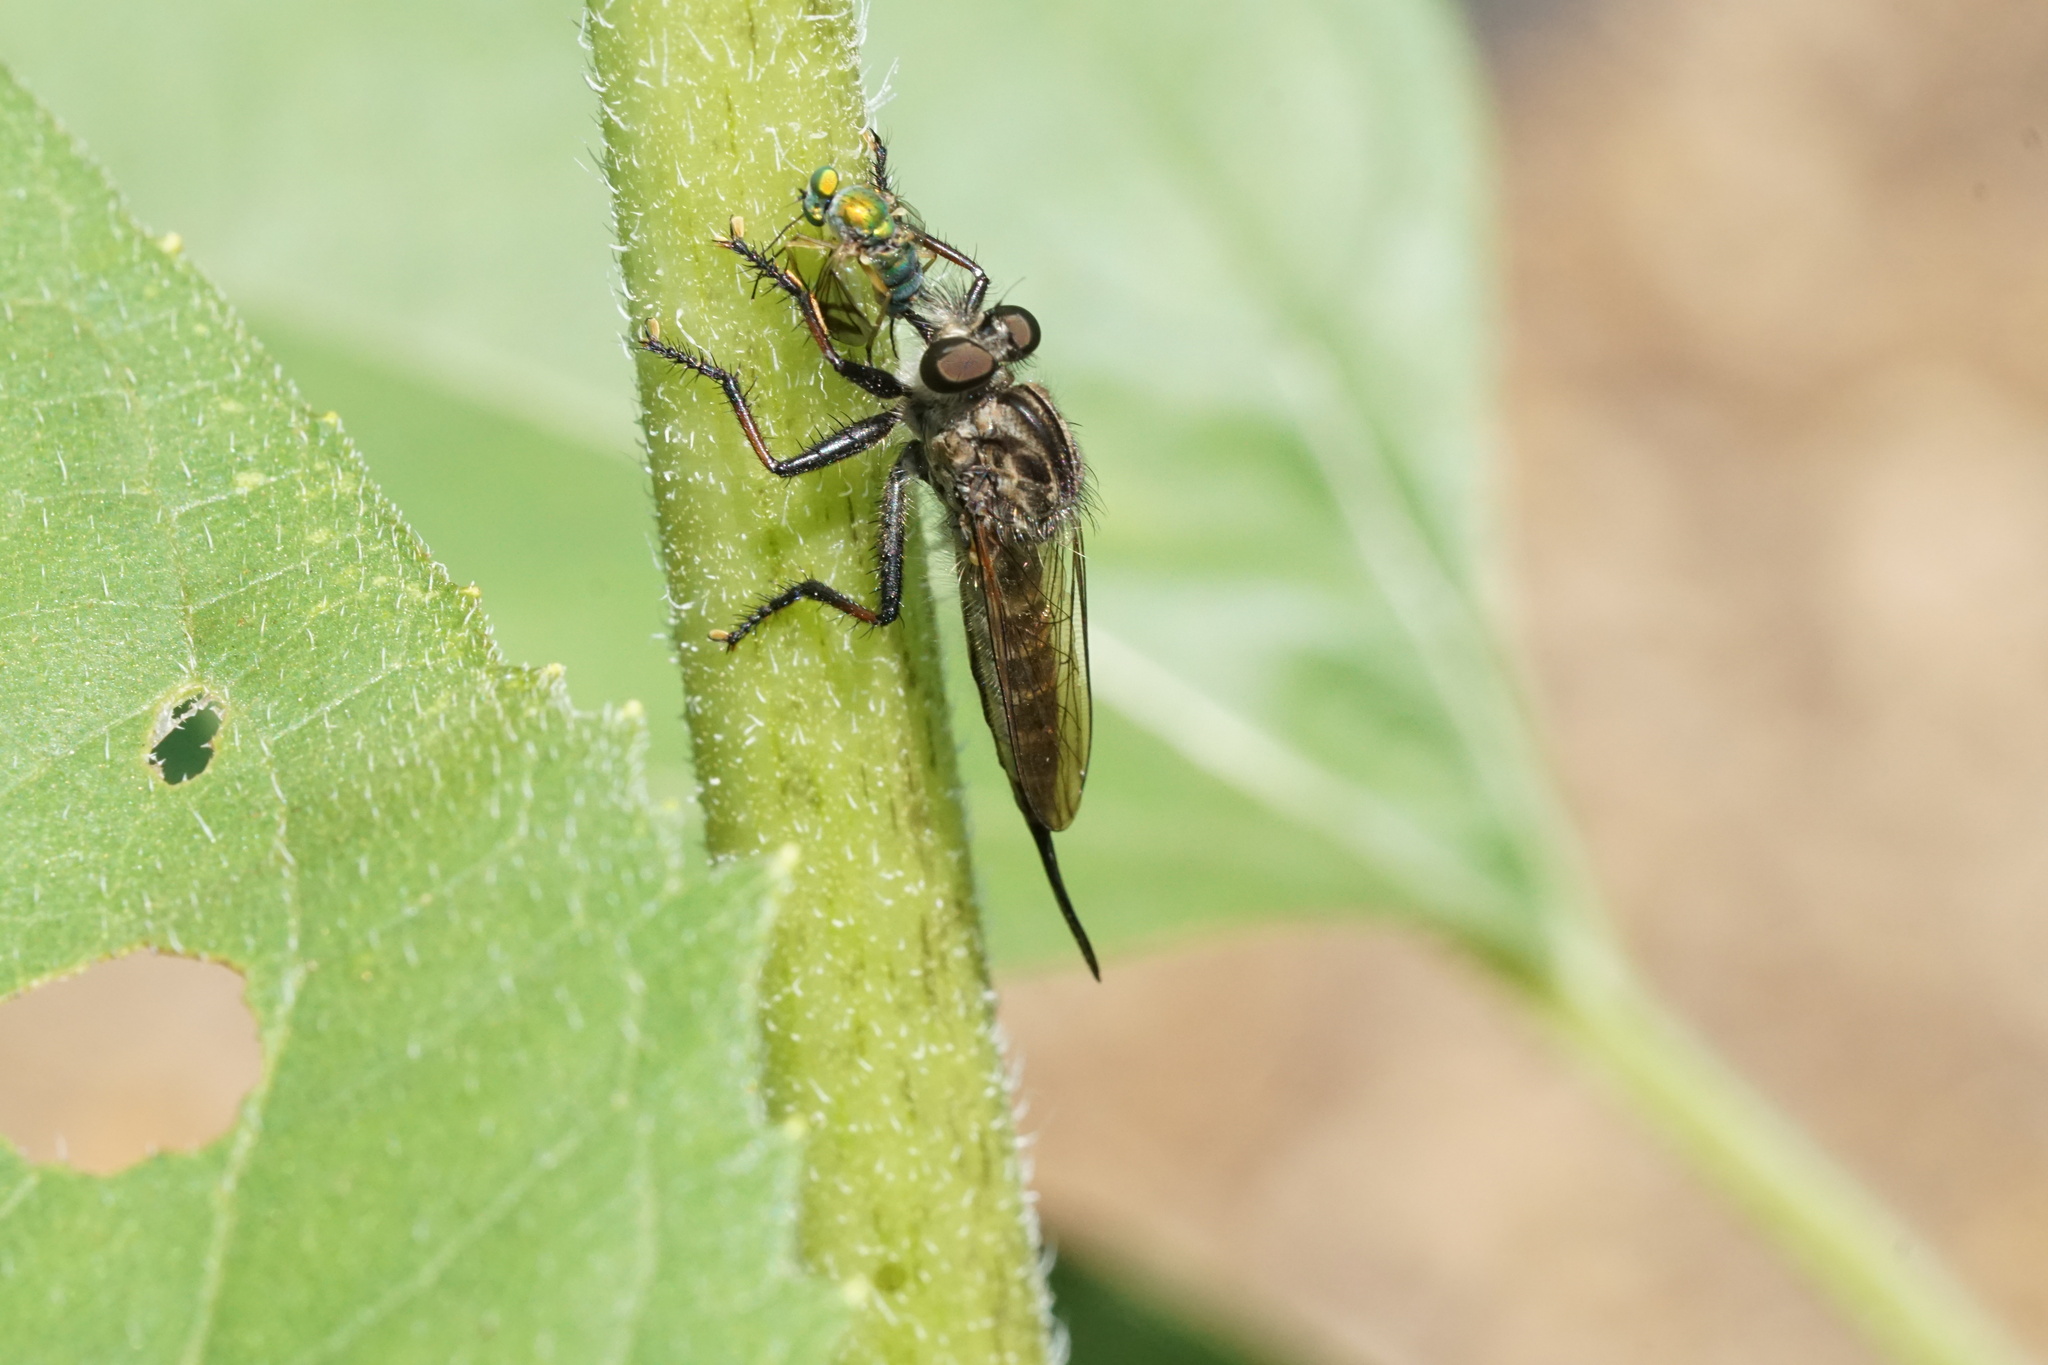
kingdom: Animalia
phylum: Arthropoda
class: Insecta
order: Diptera
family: Asilidae
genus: Efferia
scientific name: Efferia aestuans
